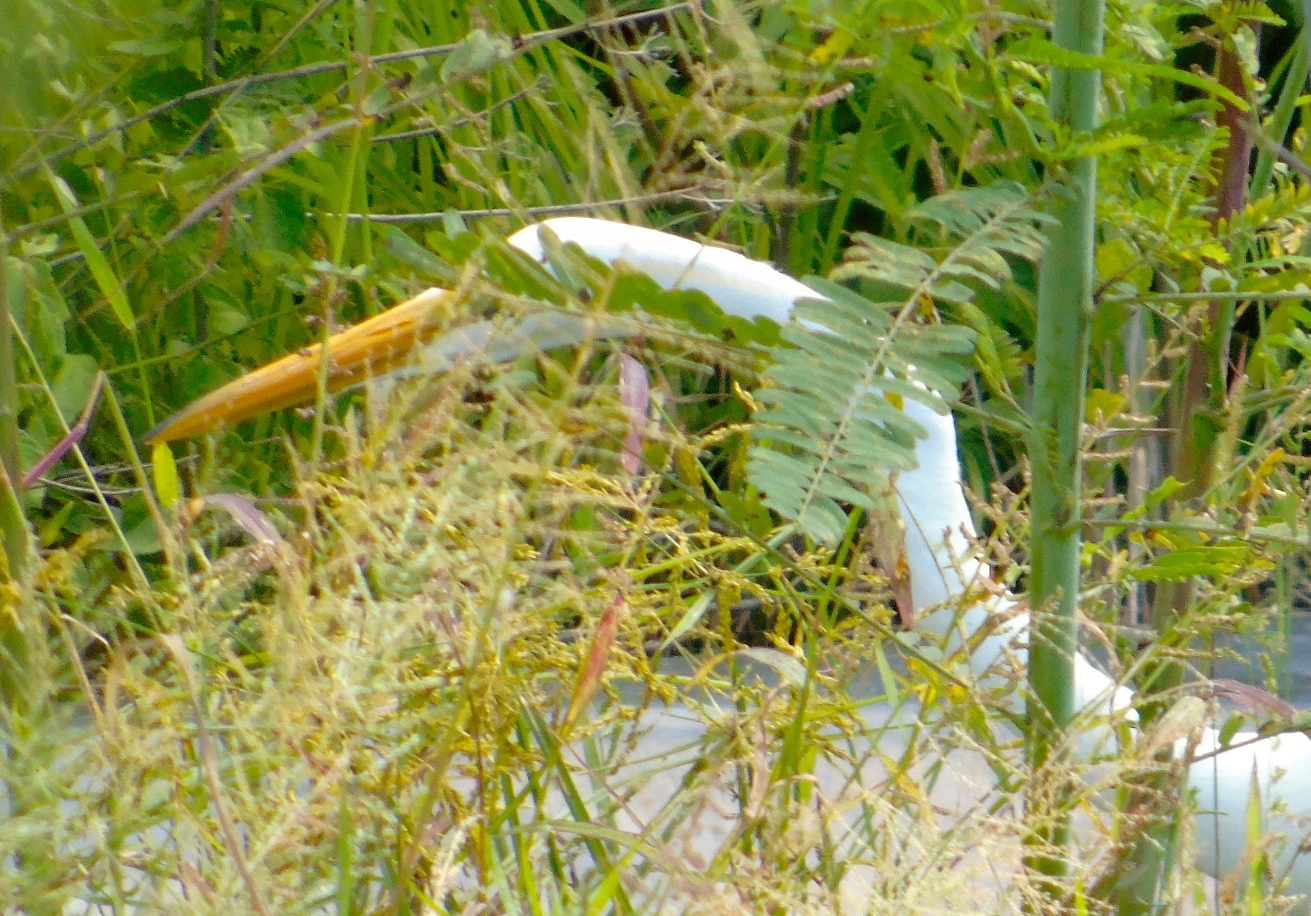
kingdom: Animalia
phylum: Chordata
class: Aves
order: Pelecaniformes
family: Ardeidae
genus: Ardea
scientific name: Ardea alba
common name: Great egret
